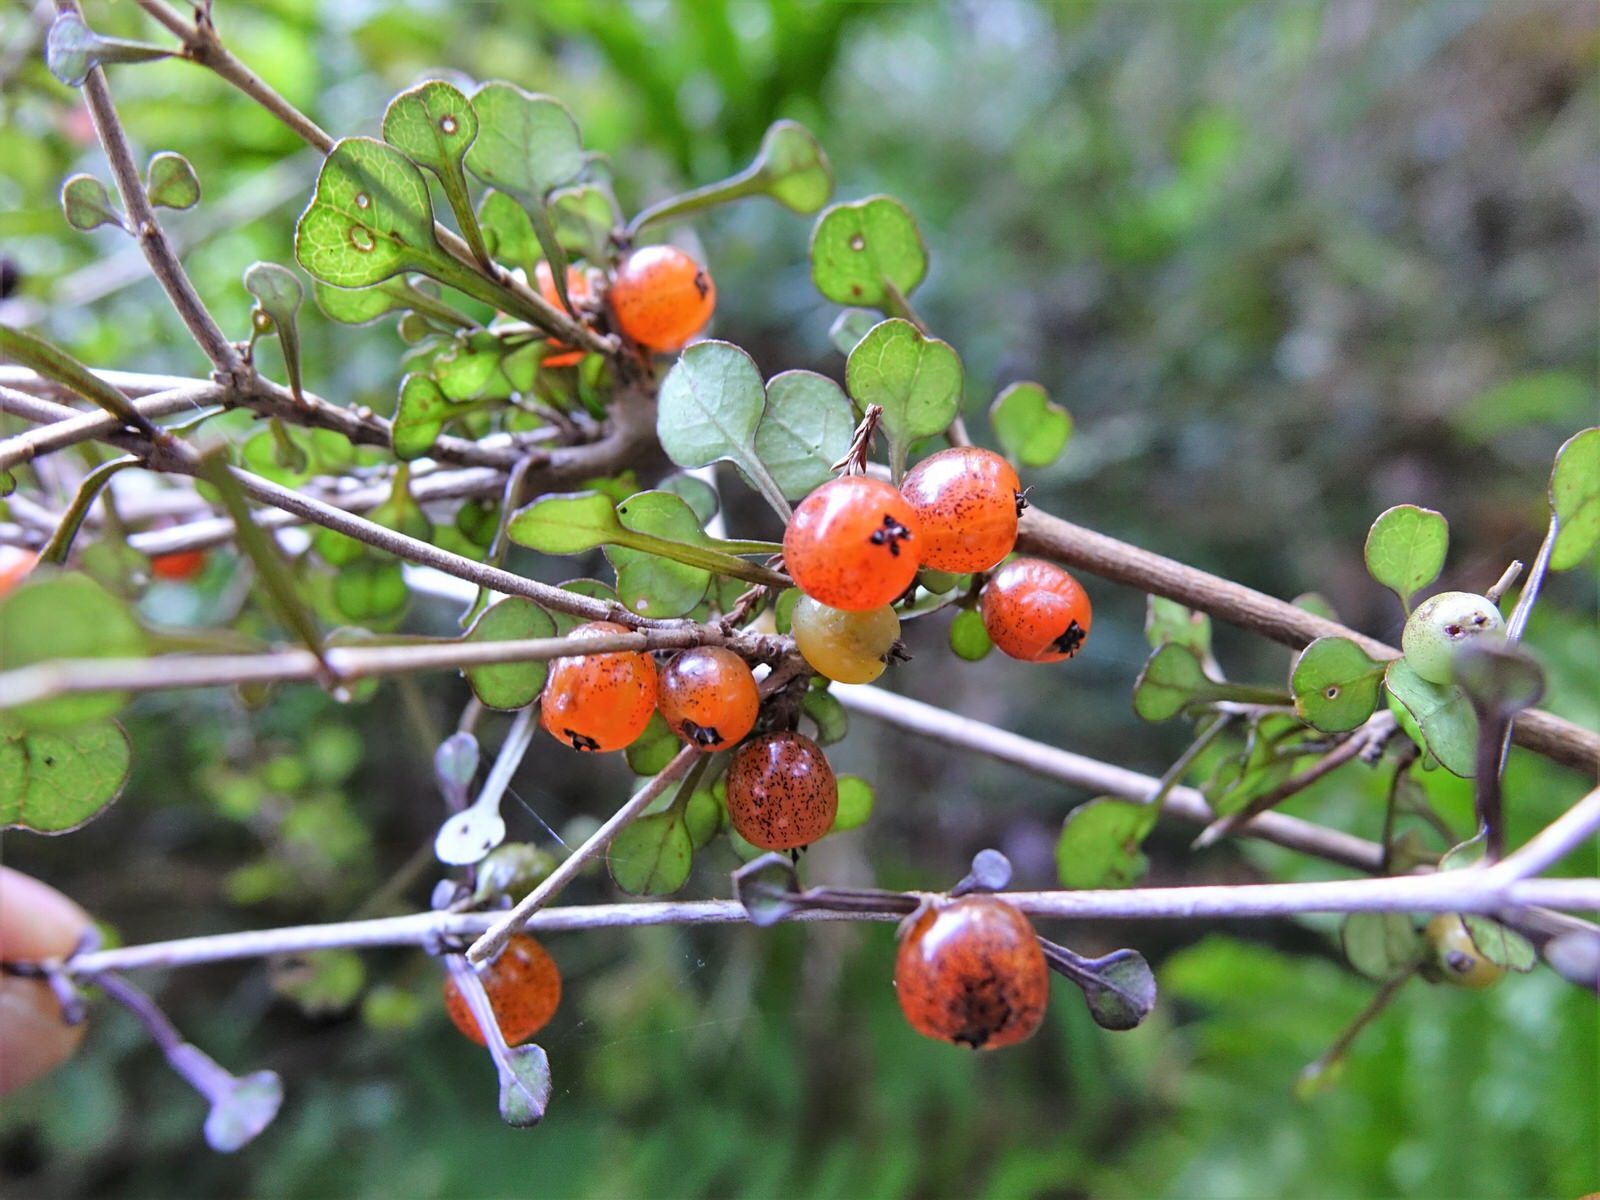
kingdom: Plantae
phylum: Tracheophyta
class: Magnoliopsida
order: Gentianales
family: Rubiaceae
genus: Coprosma
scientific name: Coprosma spathulata
